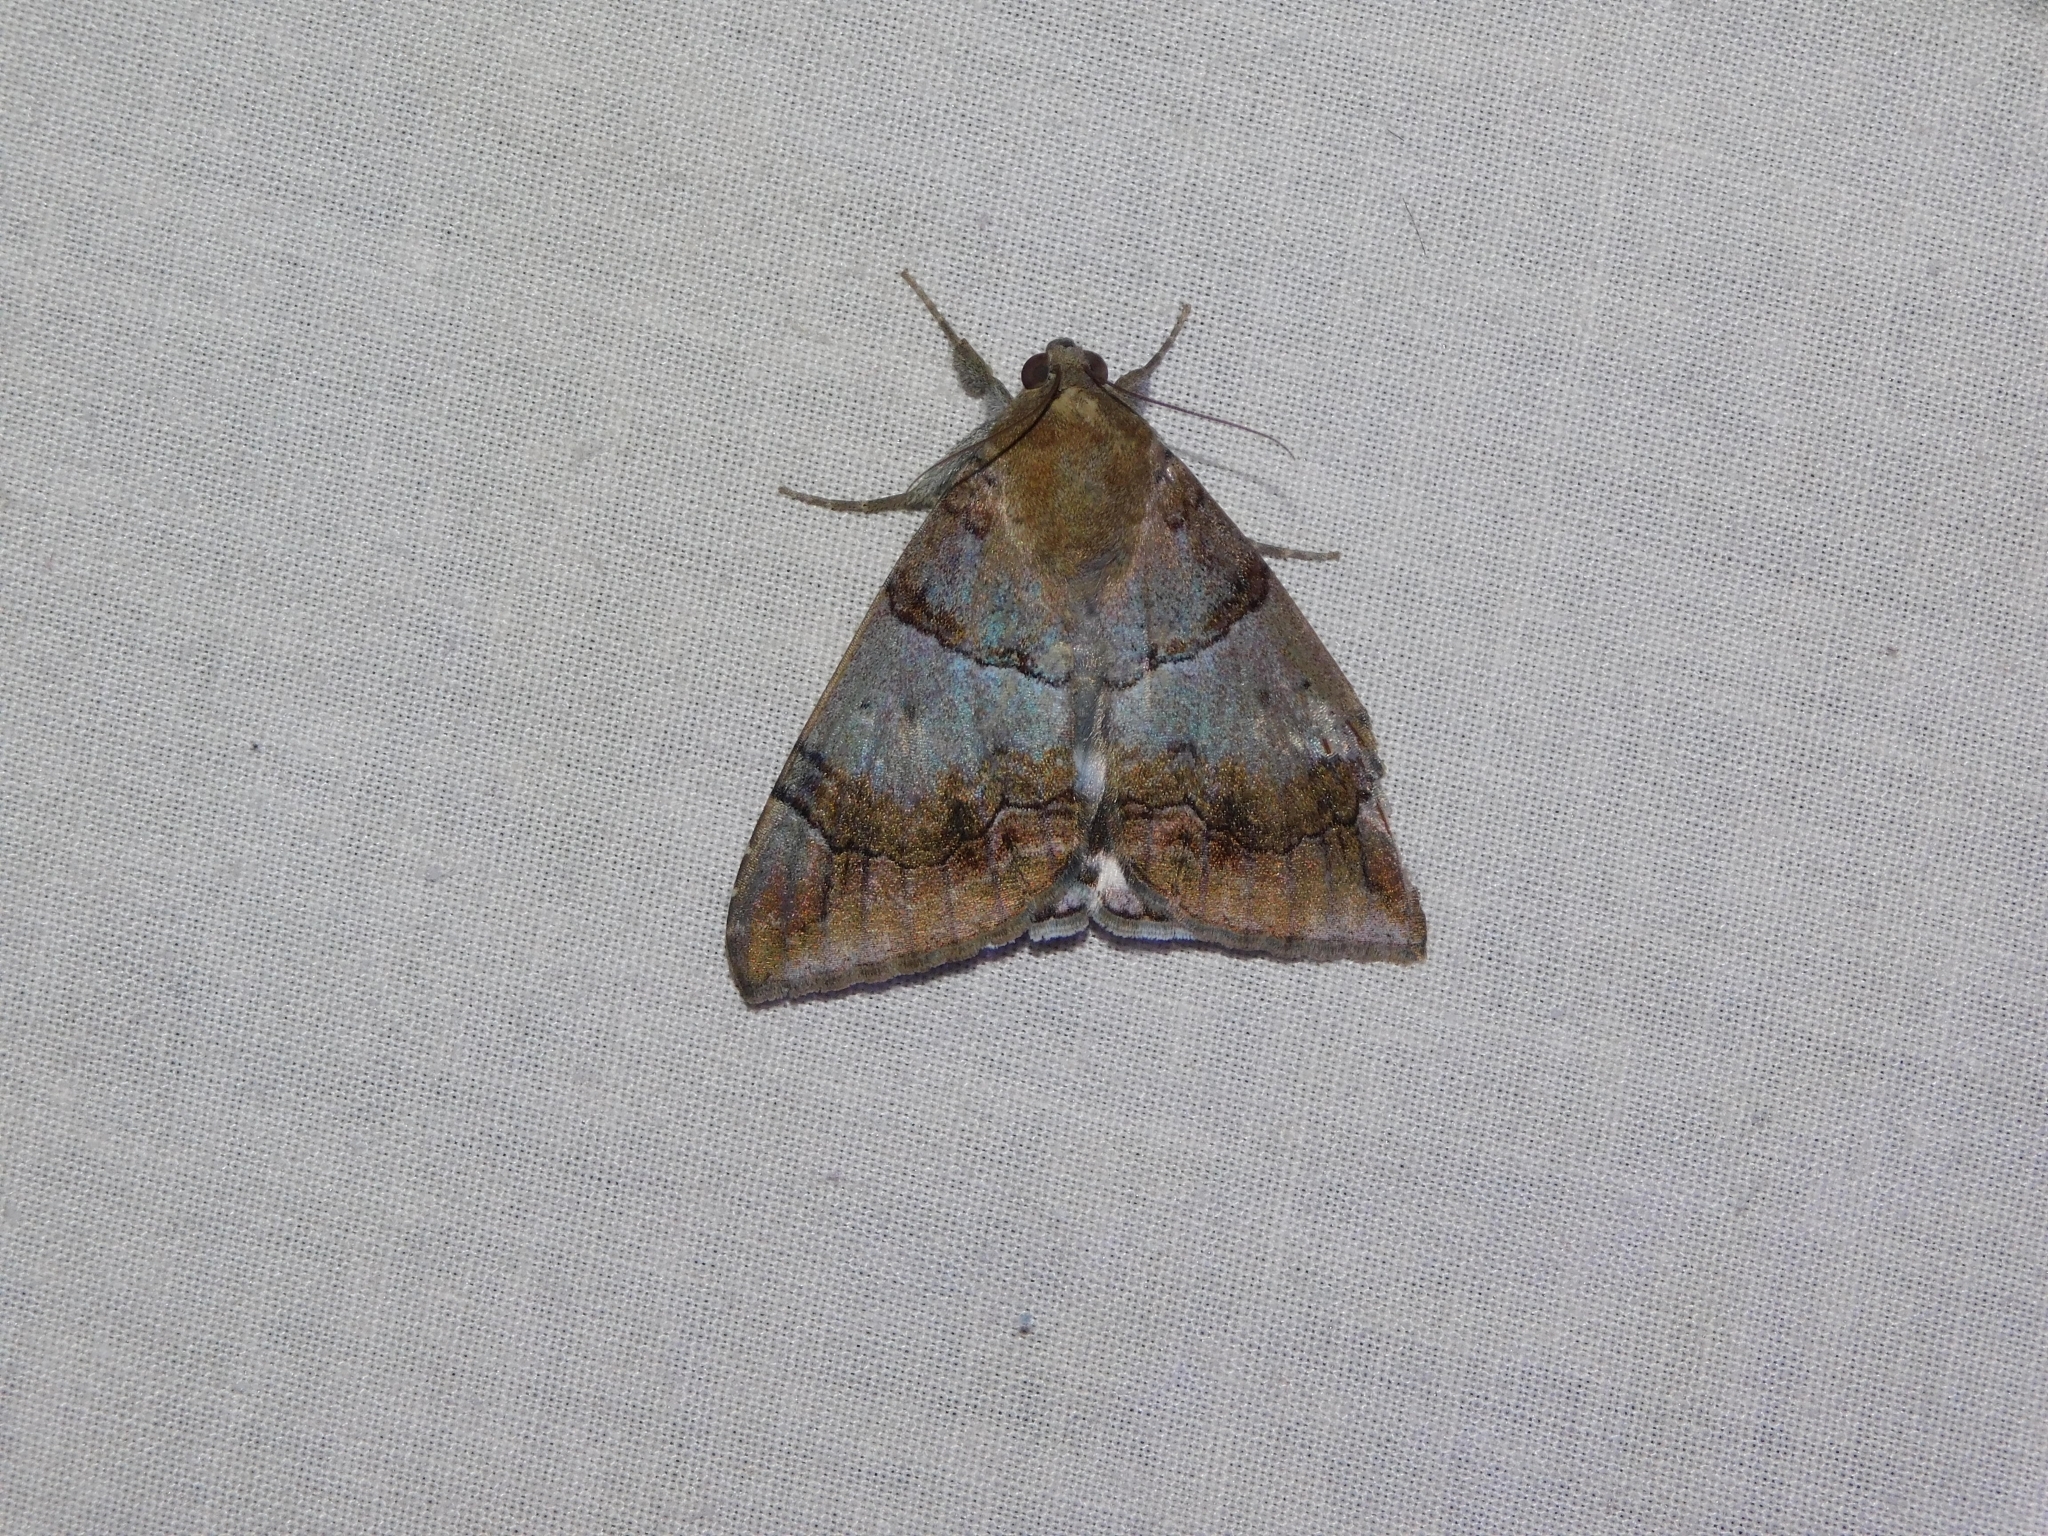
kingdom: Animalia
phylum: Arthropoda
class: Insecta
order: Lepidoptera
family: Erebidae
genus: Achaea
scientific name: Achaea janata
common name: Croton caterpillar
